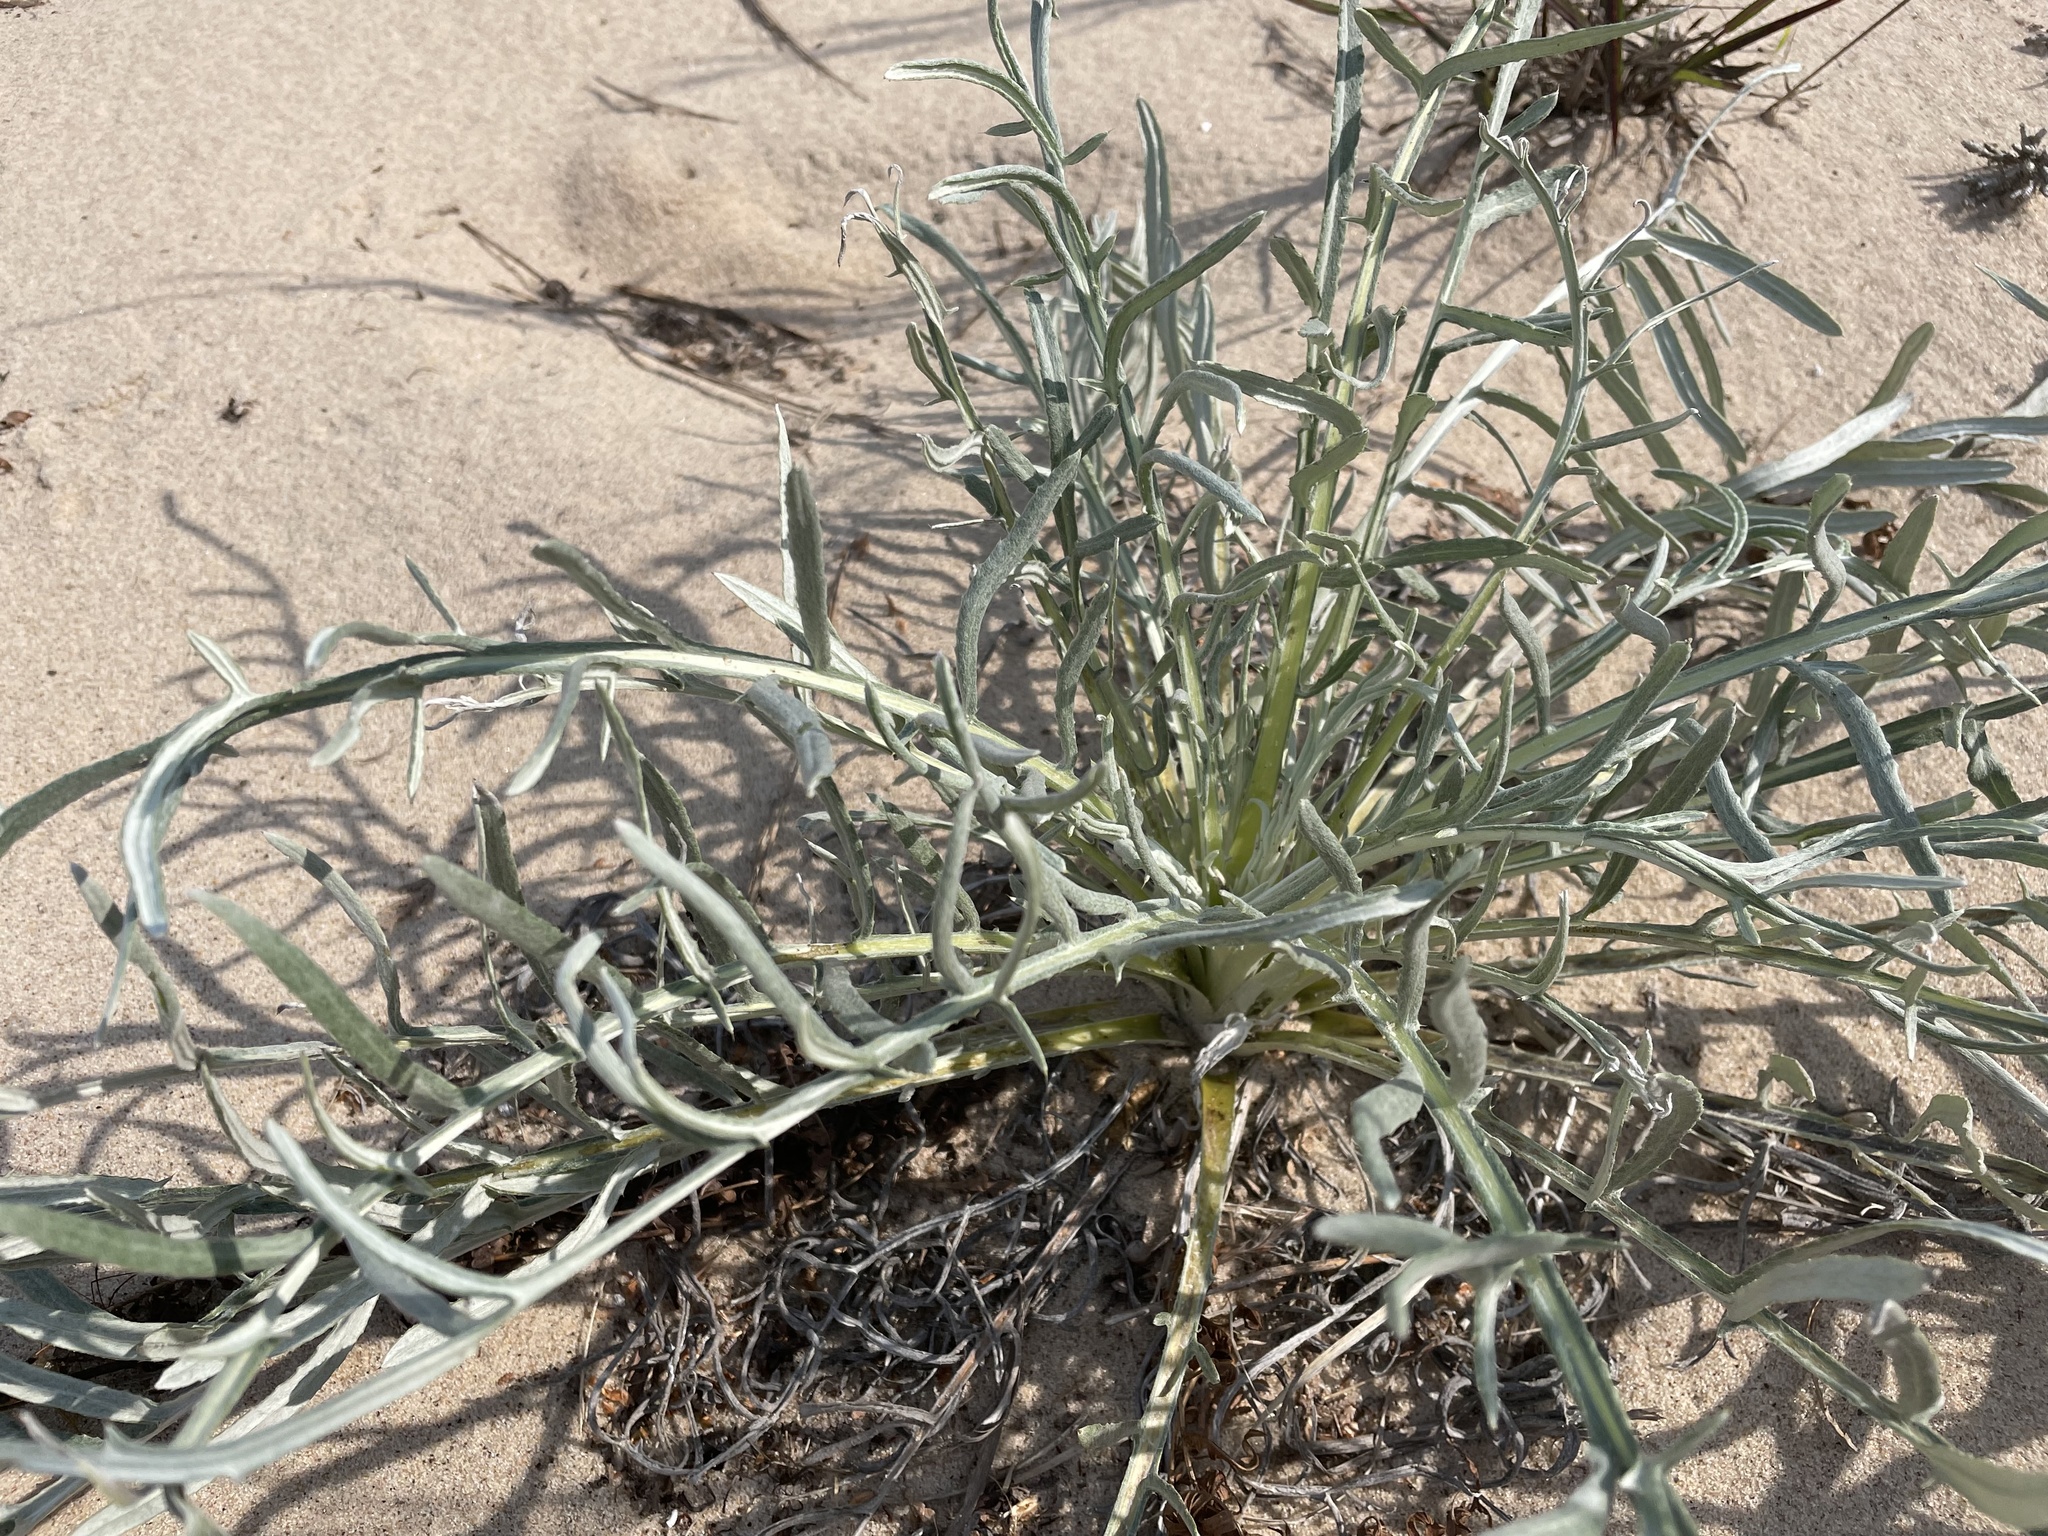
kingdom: Plantae
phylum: Tracheophyta
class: Magnoliopsida
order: Asterales
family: Asteraceae
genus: Cirsium
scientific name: Cirsium pitcheri
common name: Dune thistle
